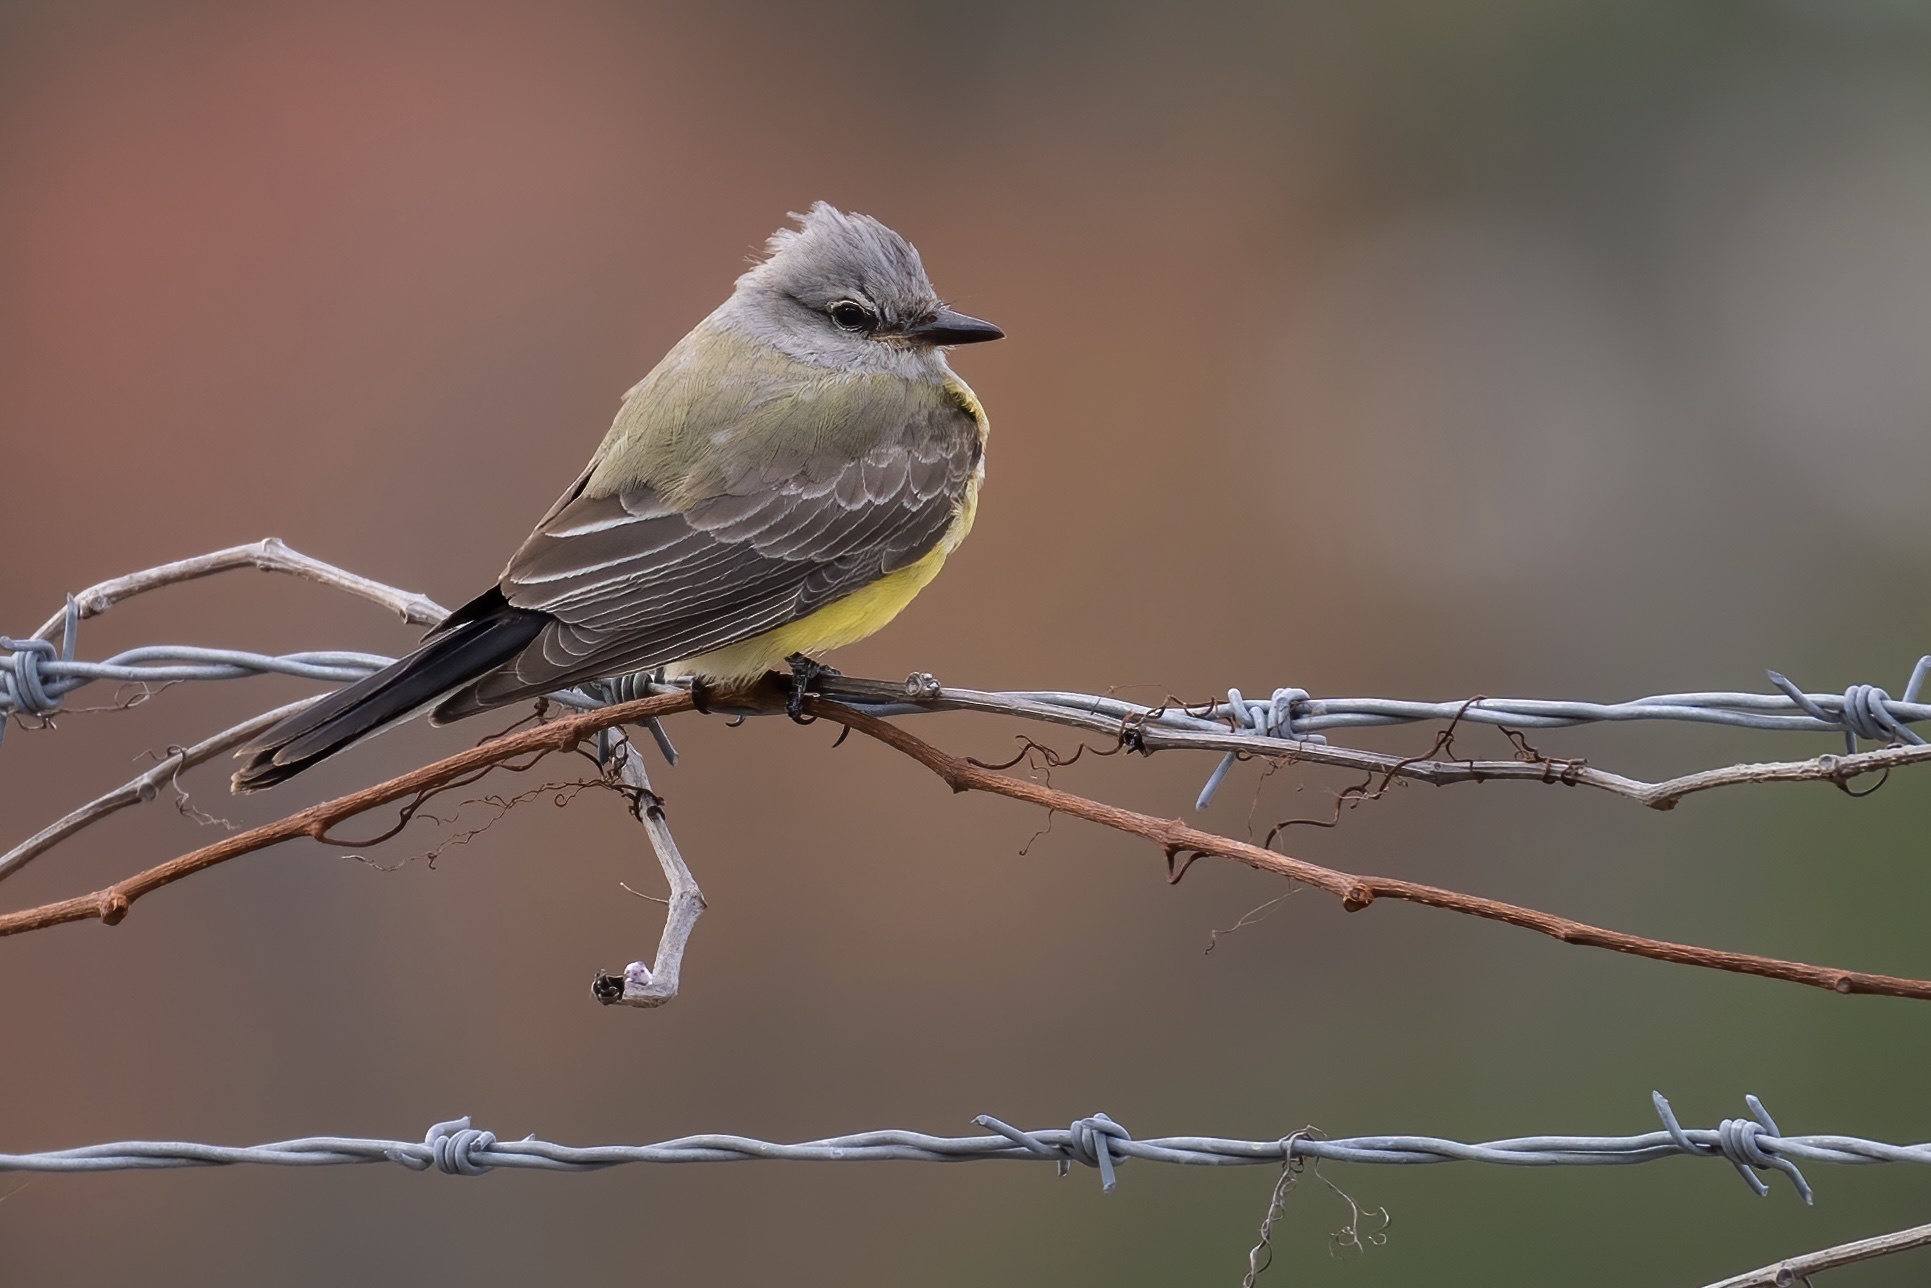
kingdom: Animalia
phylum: Chordata
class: Aves
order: Passeriformes
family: Tyrannidae
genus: Tyrannus
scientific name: Tyrannus verticalis
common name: Western kingbird
